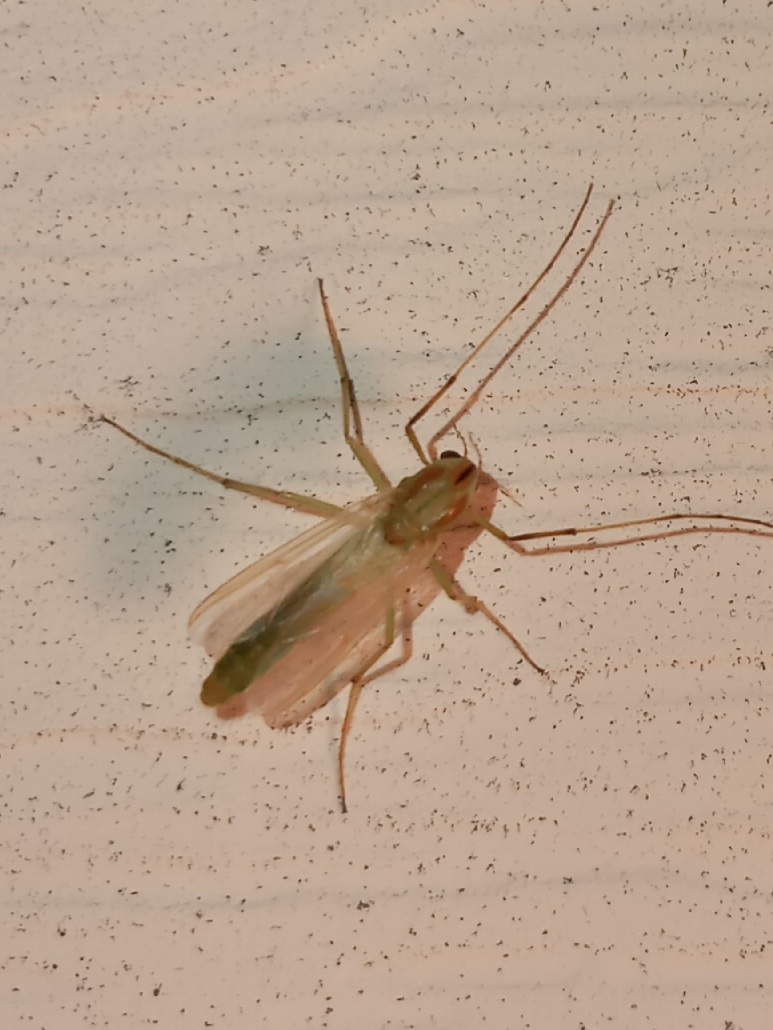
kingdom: Animalia
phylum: Arthropoda
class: Insecta
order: Diptera
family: Chironomidae
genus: Axarus
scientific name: Axarus
